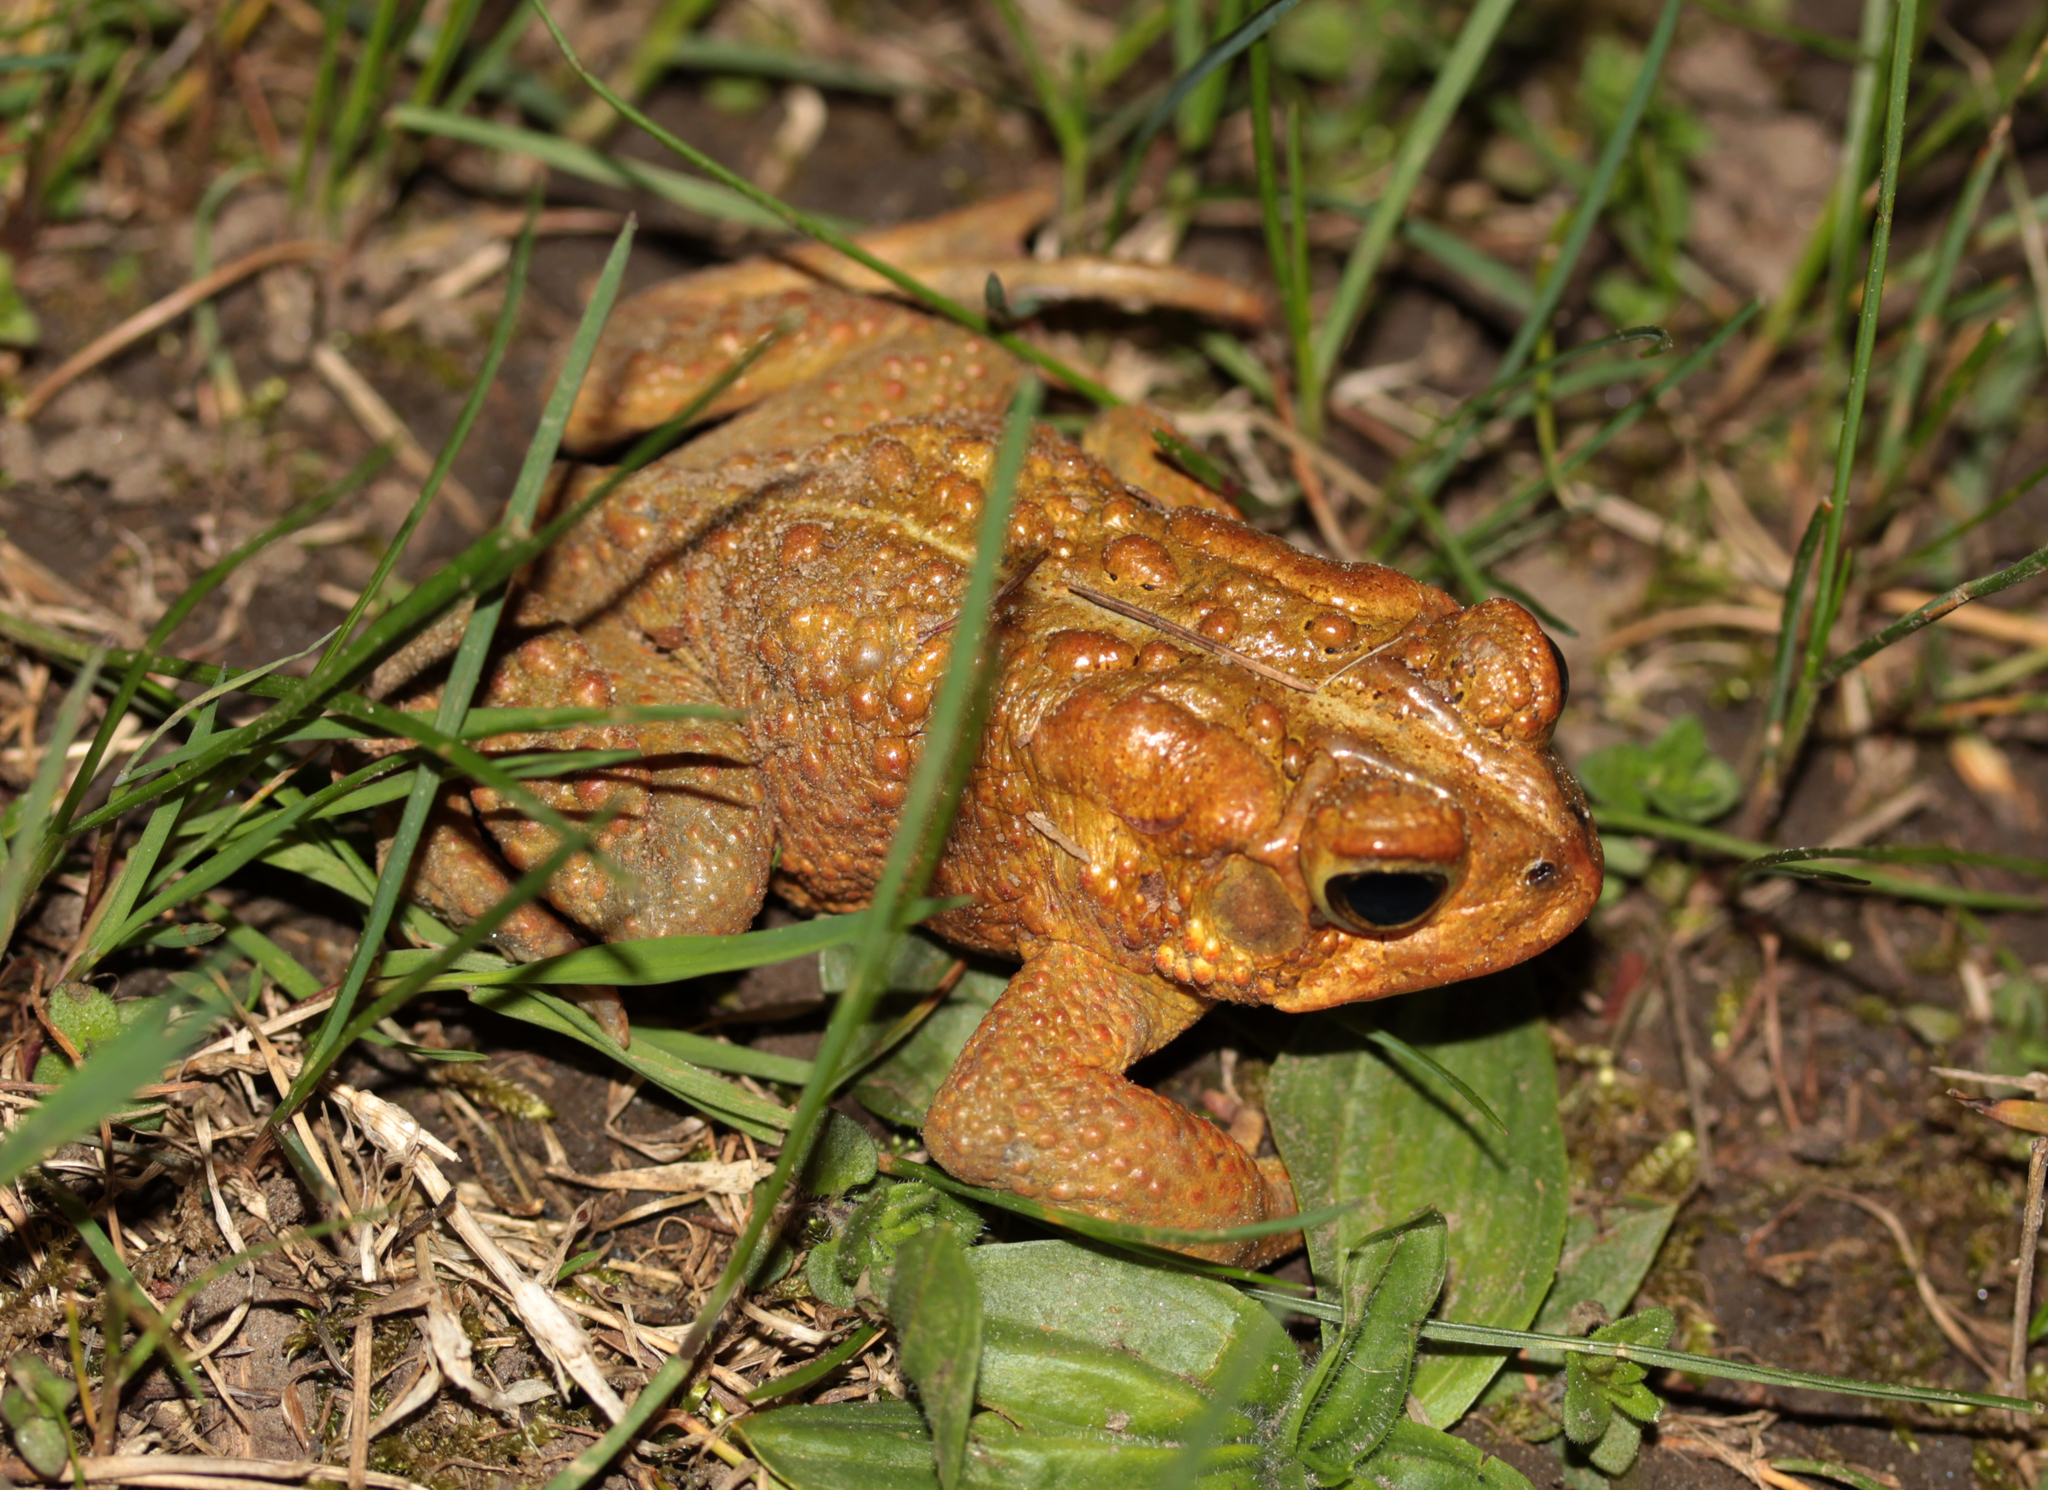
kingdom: Animalia
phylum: Chordata
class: Amphibia
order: Anura
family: Bufonidae
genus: Anaxyrus
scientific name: Anaxyrus americanus
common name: American toad
